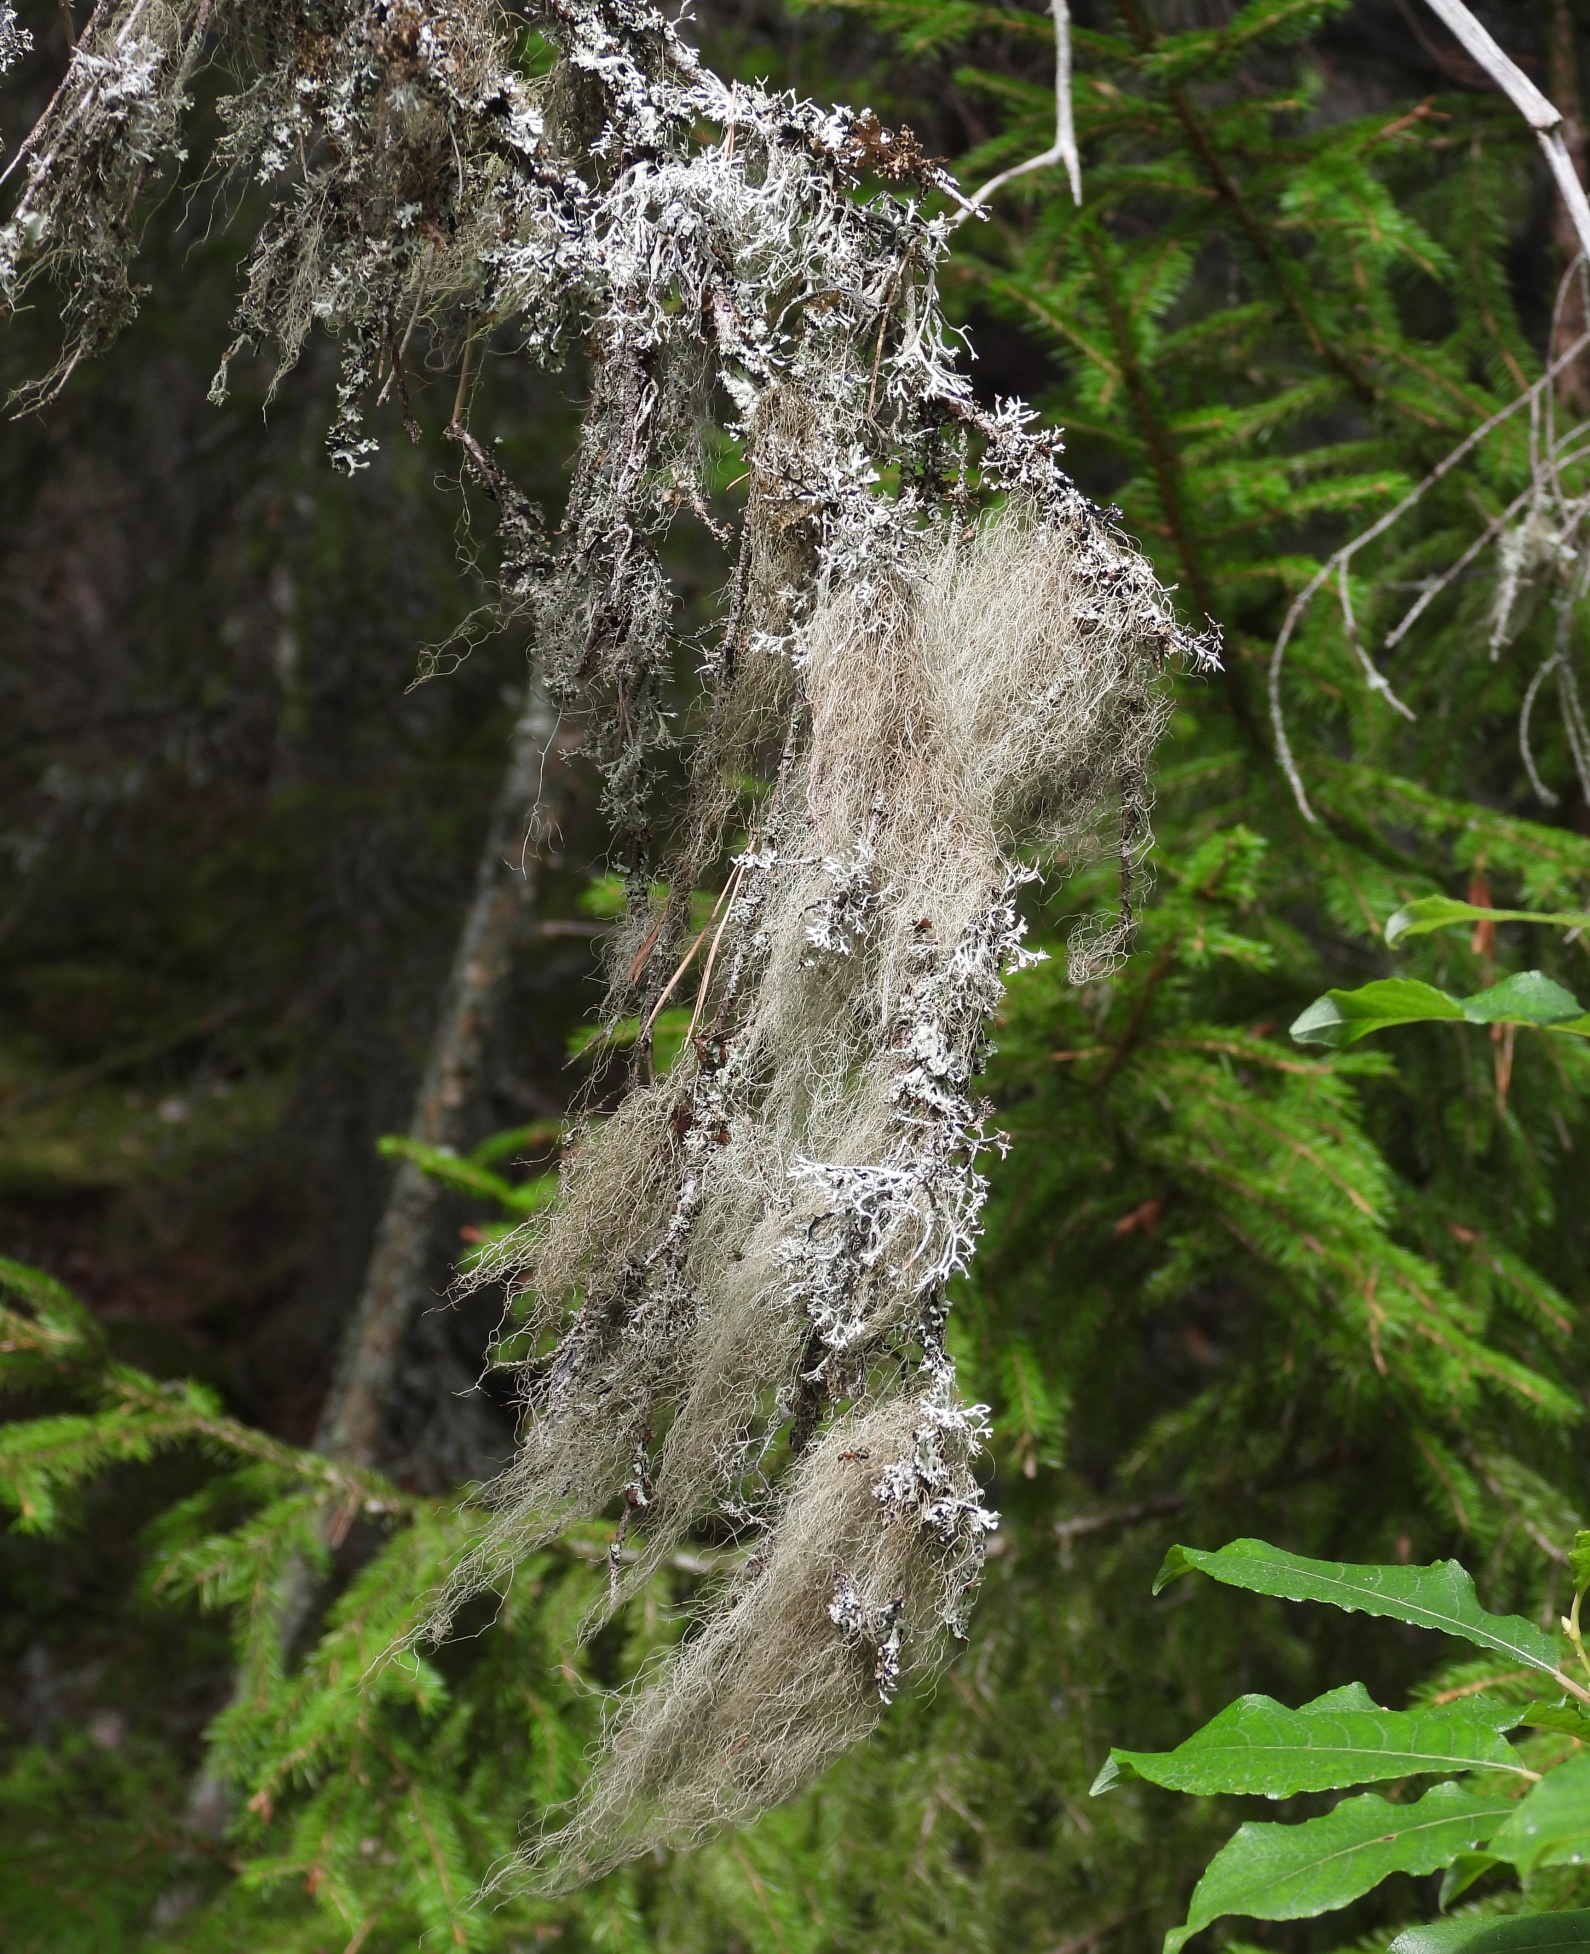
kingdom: Fungi
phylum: Ascomycota
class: Lecanoromycetes
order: Lecanorales
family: Parmeliaceae
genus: Bryoria
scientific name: Bryoria fuscescens
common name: Pale-footed horsehair lichen
